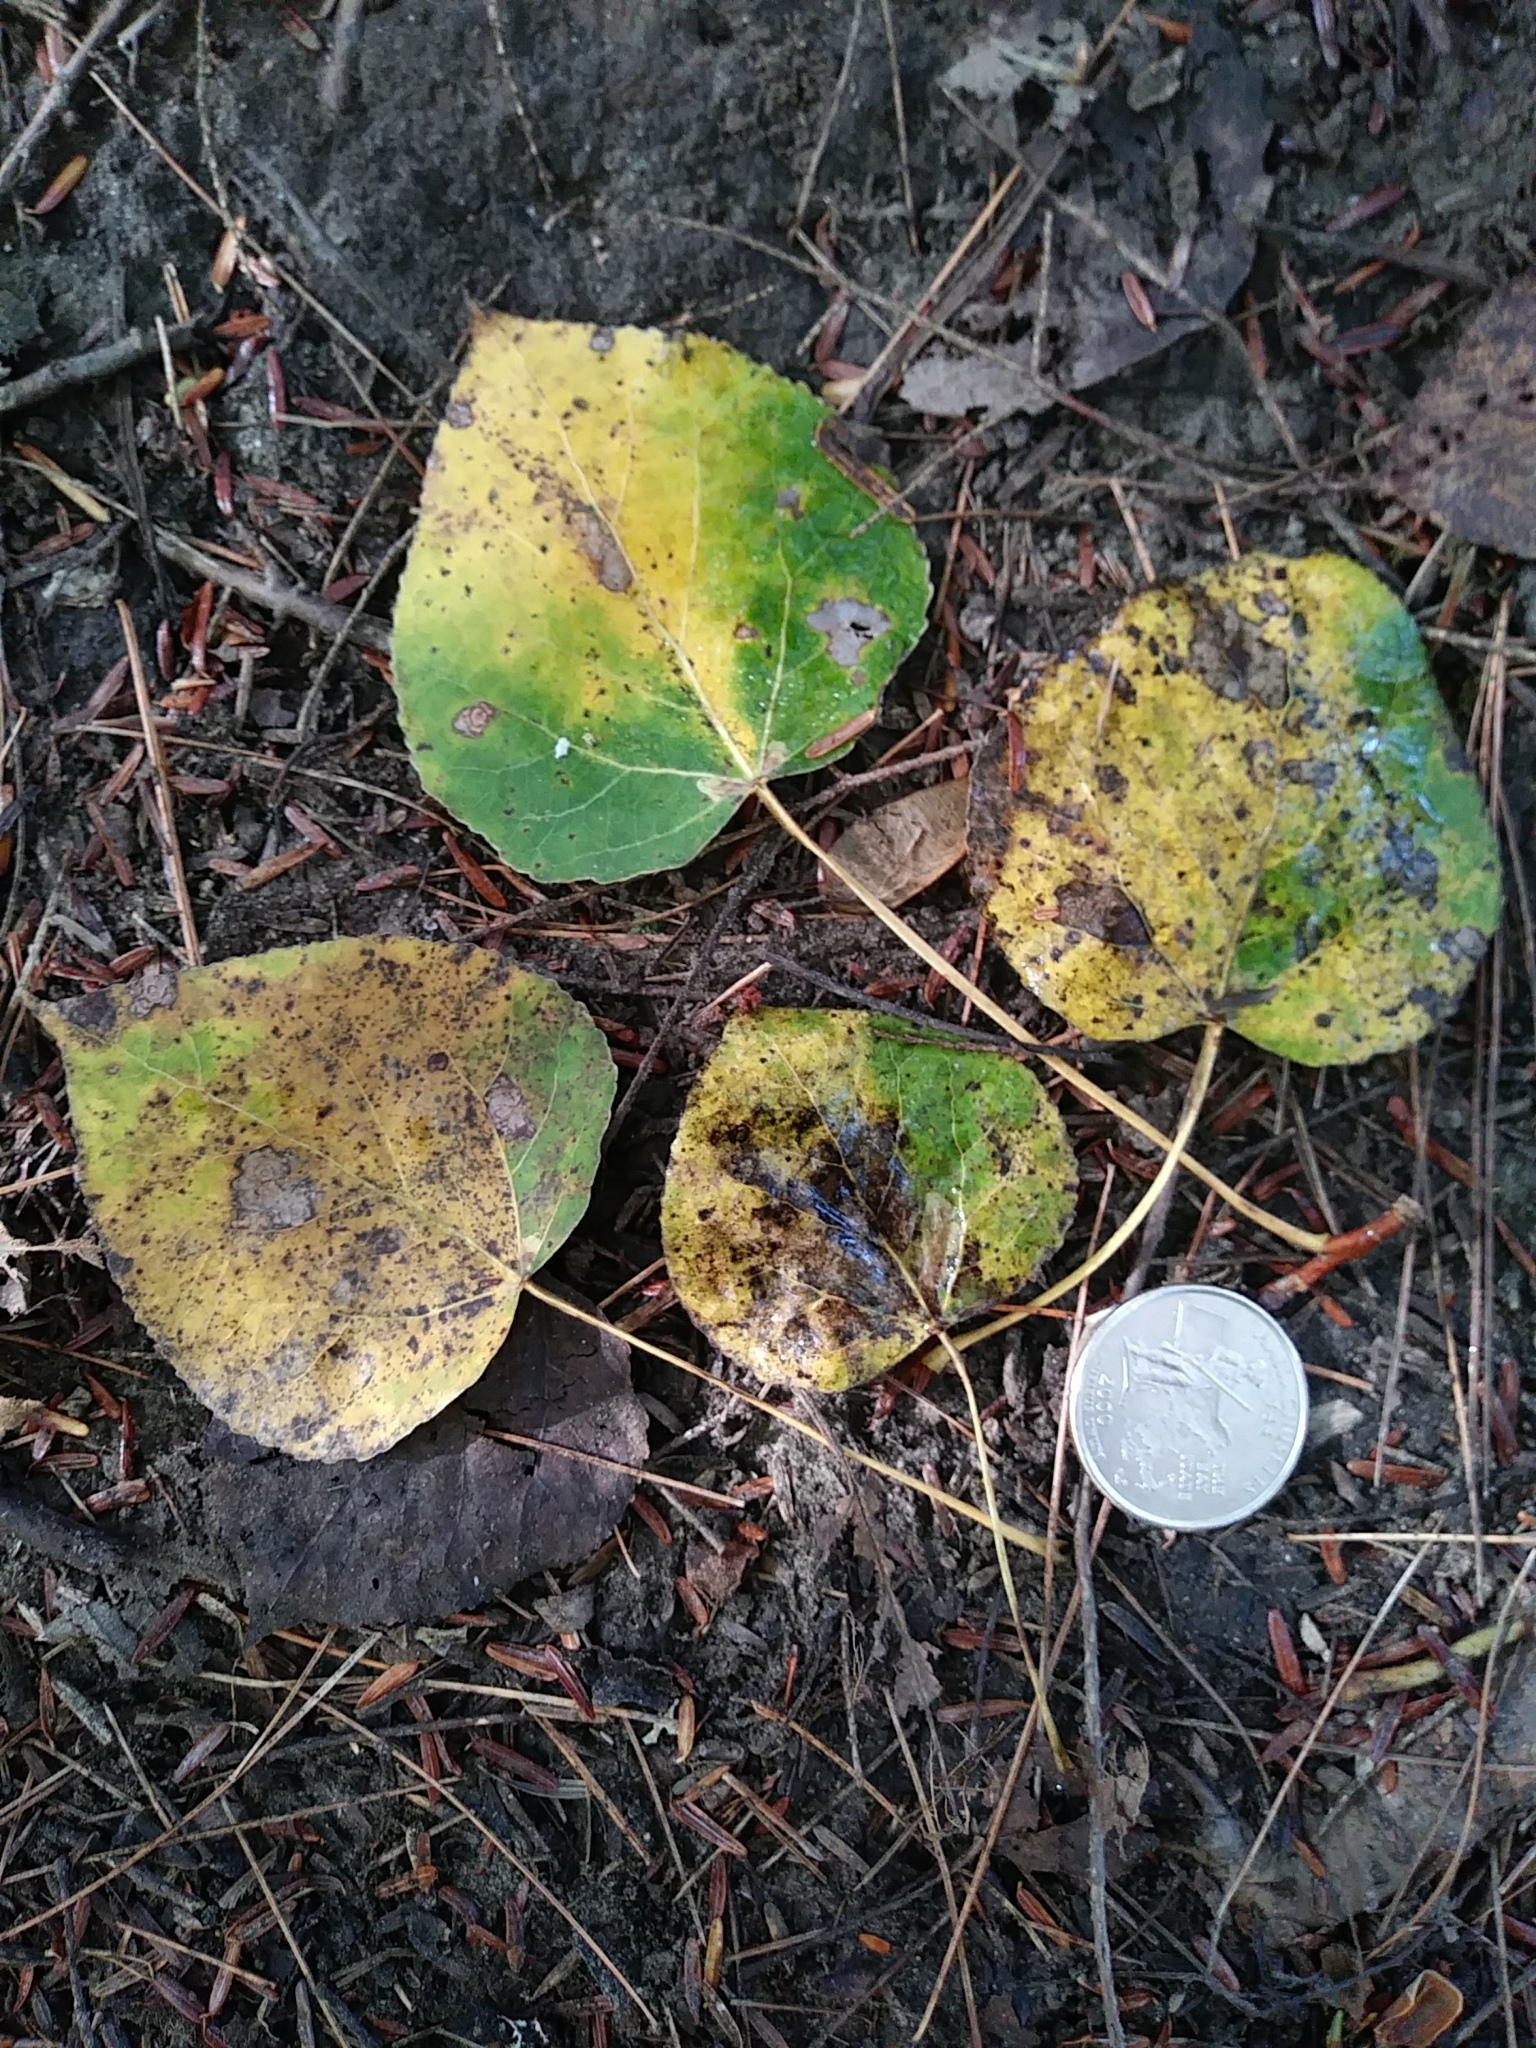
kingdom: Plantae
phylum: Tracheophyta
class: Magnoliopsida
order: Malpighiales
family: Salicaceae
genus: Populus
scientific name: Populus tremuloides
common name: Quaking aspen
